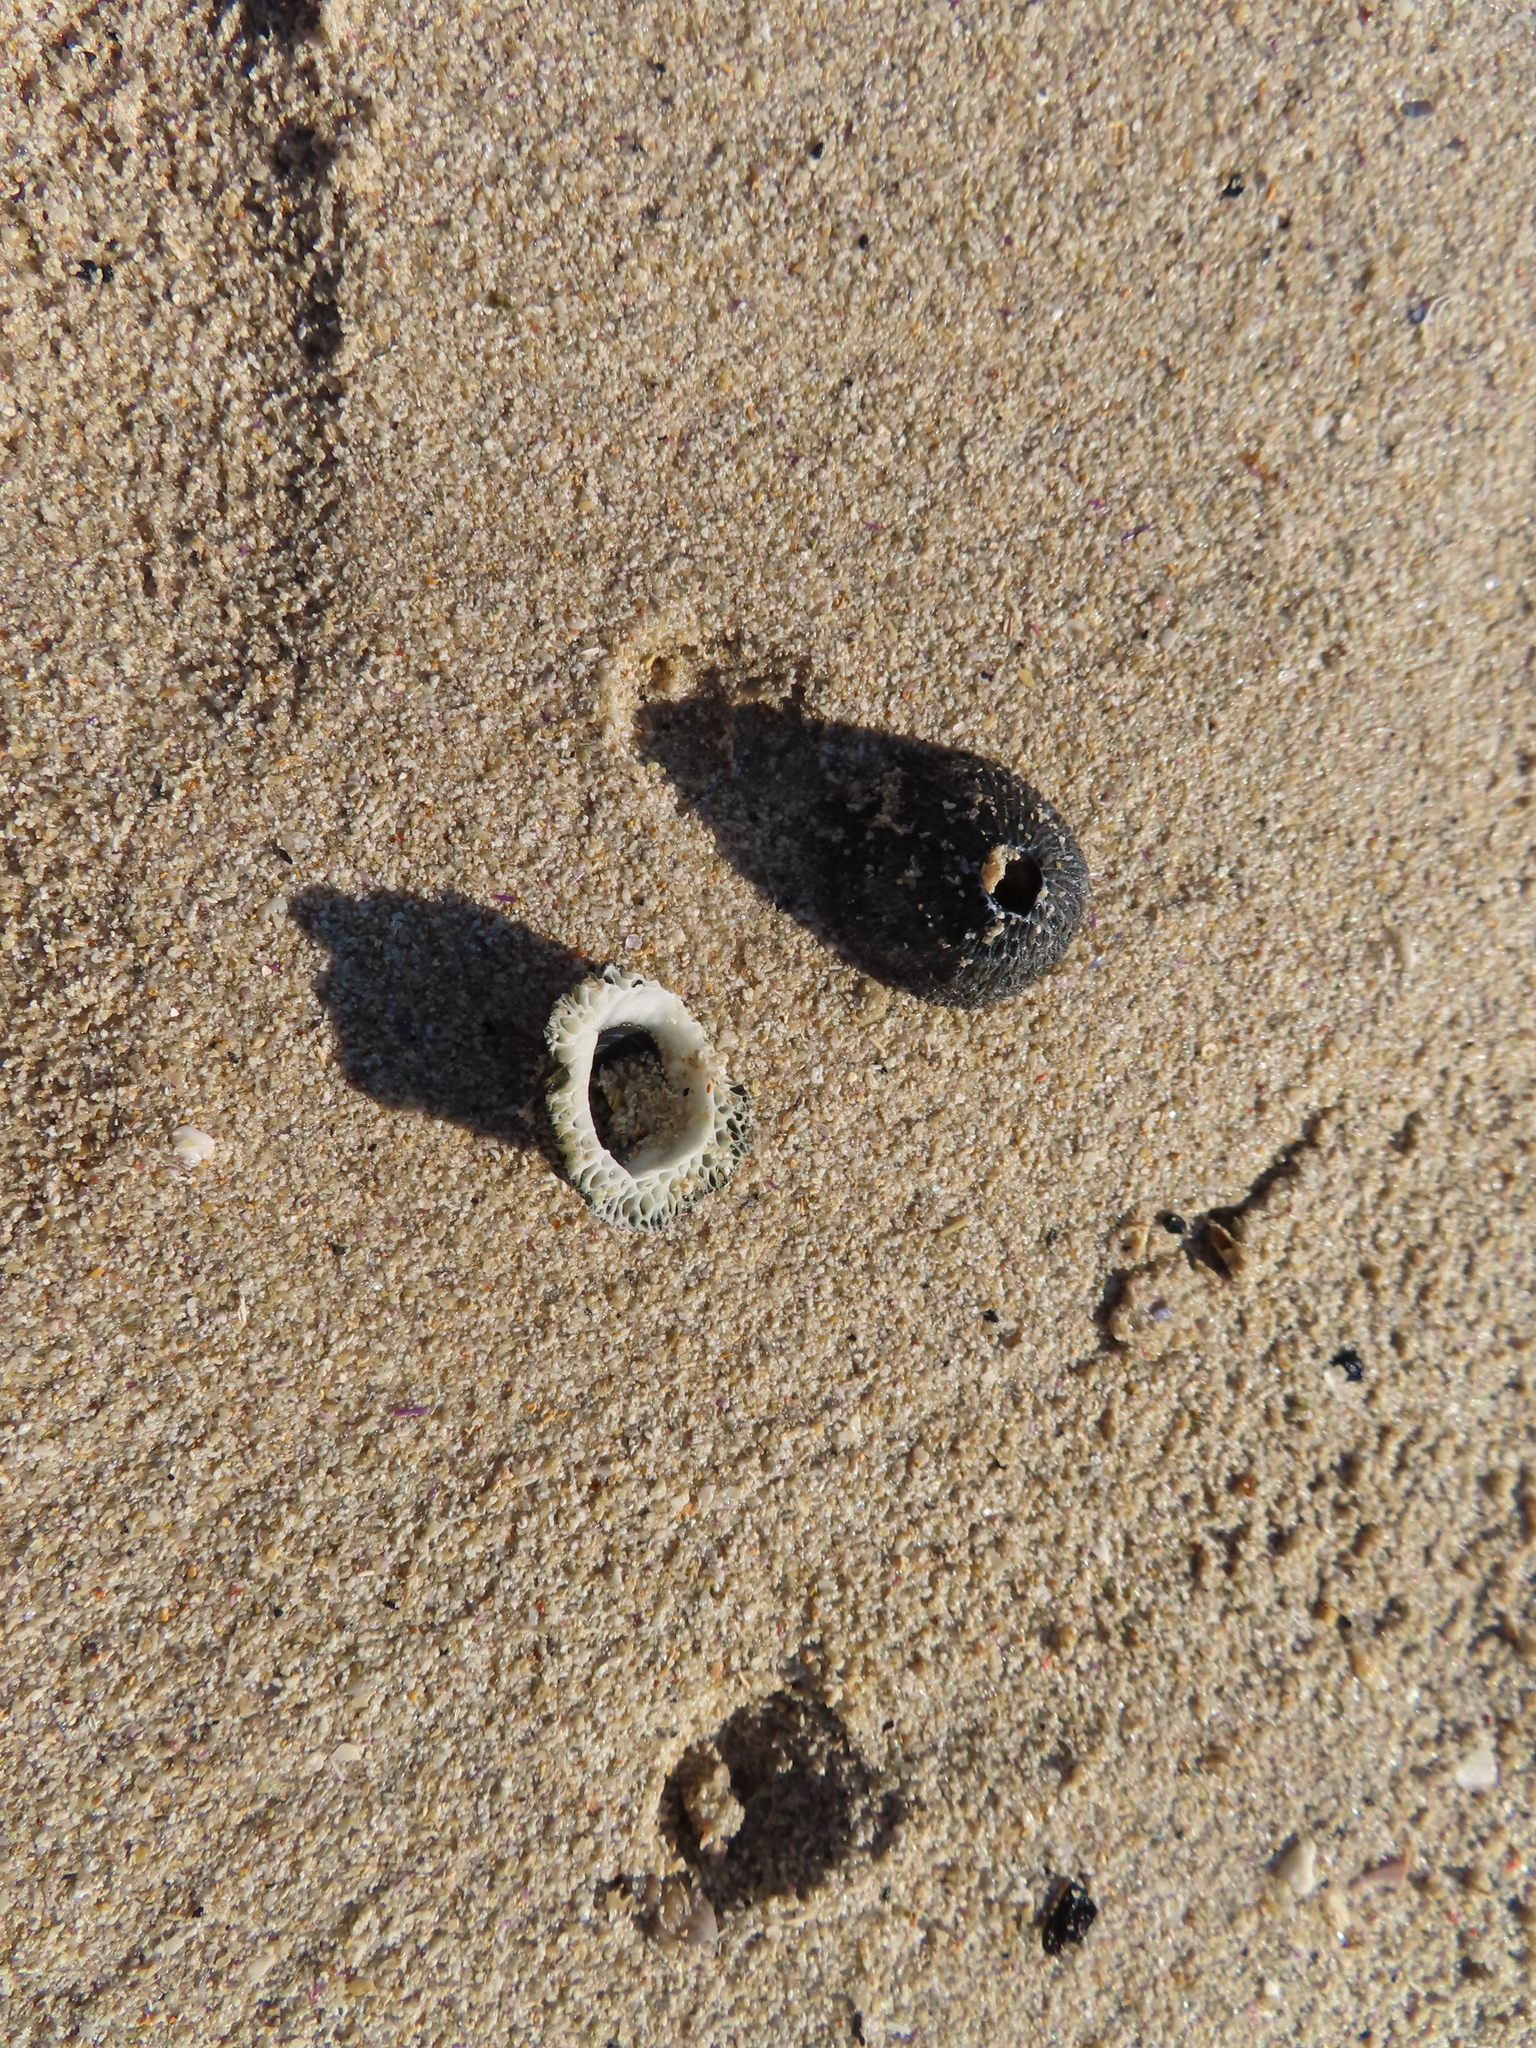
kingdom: Animalia
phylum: Arthropoda
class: Maxillopoda
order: Sessilia
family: Tetraclitidae
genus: Tetraclita
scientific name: Tetraclita serrata
